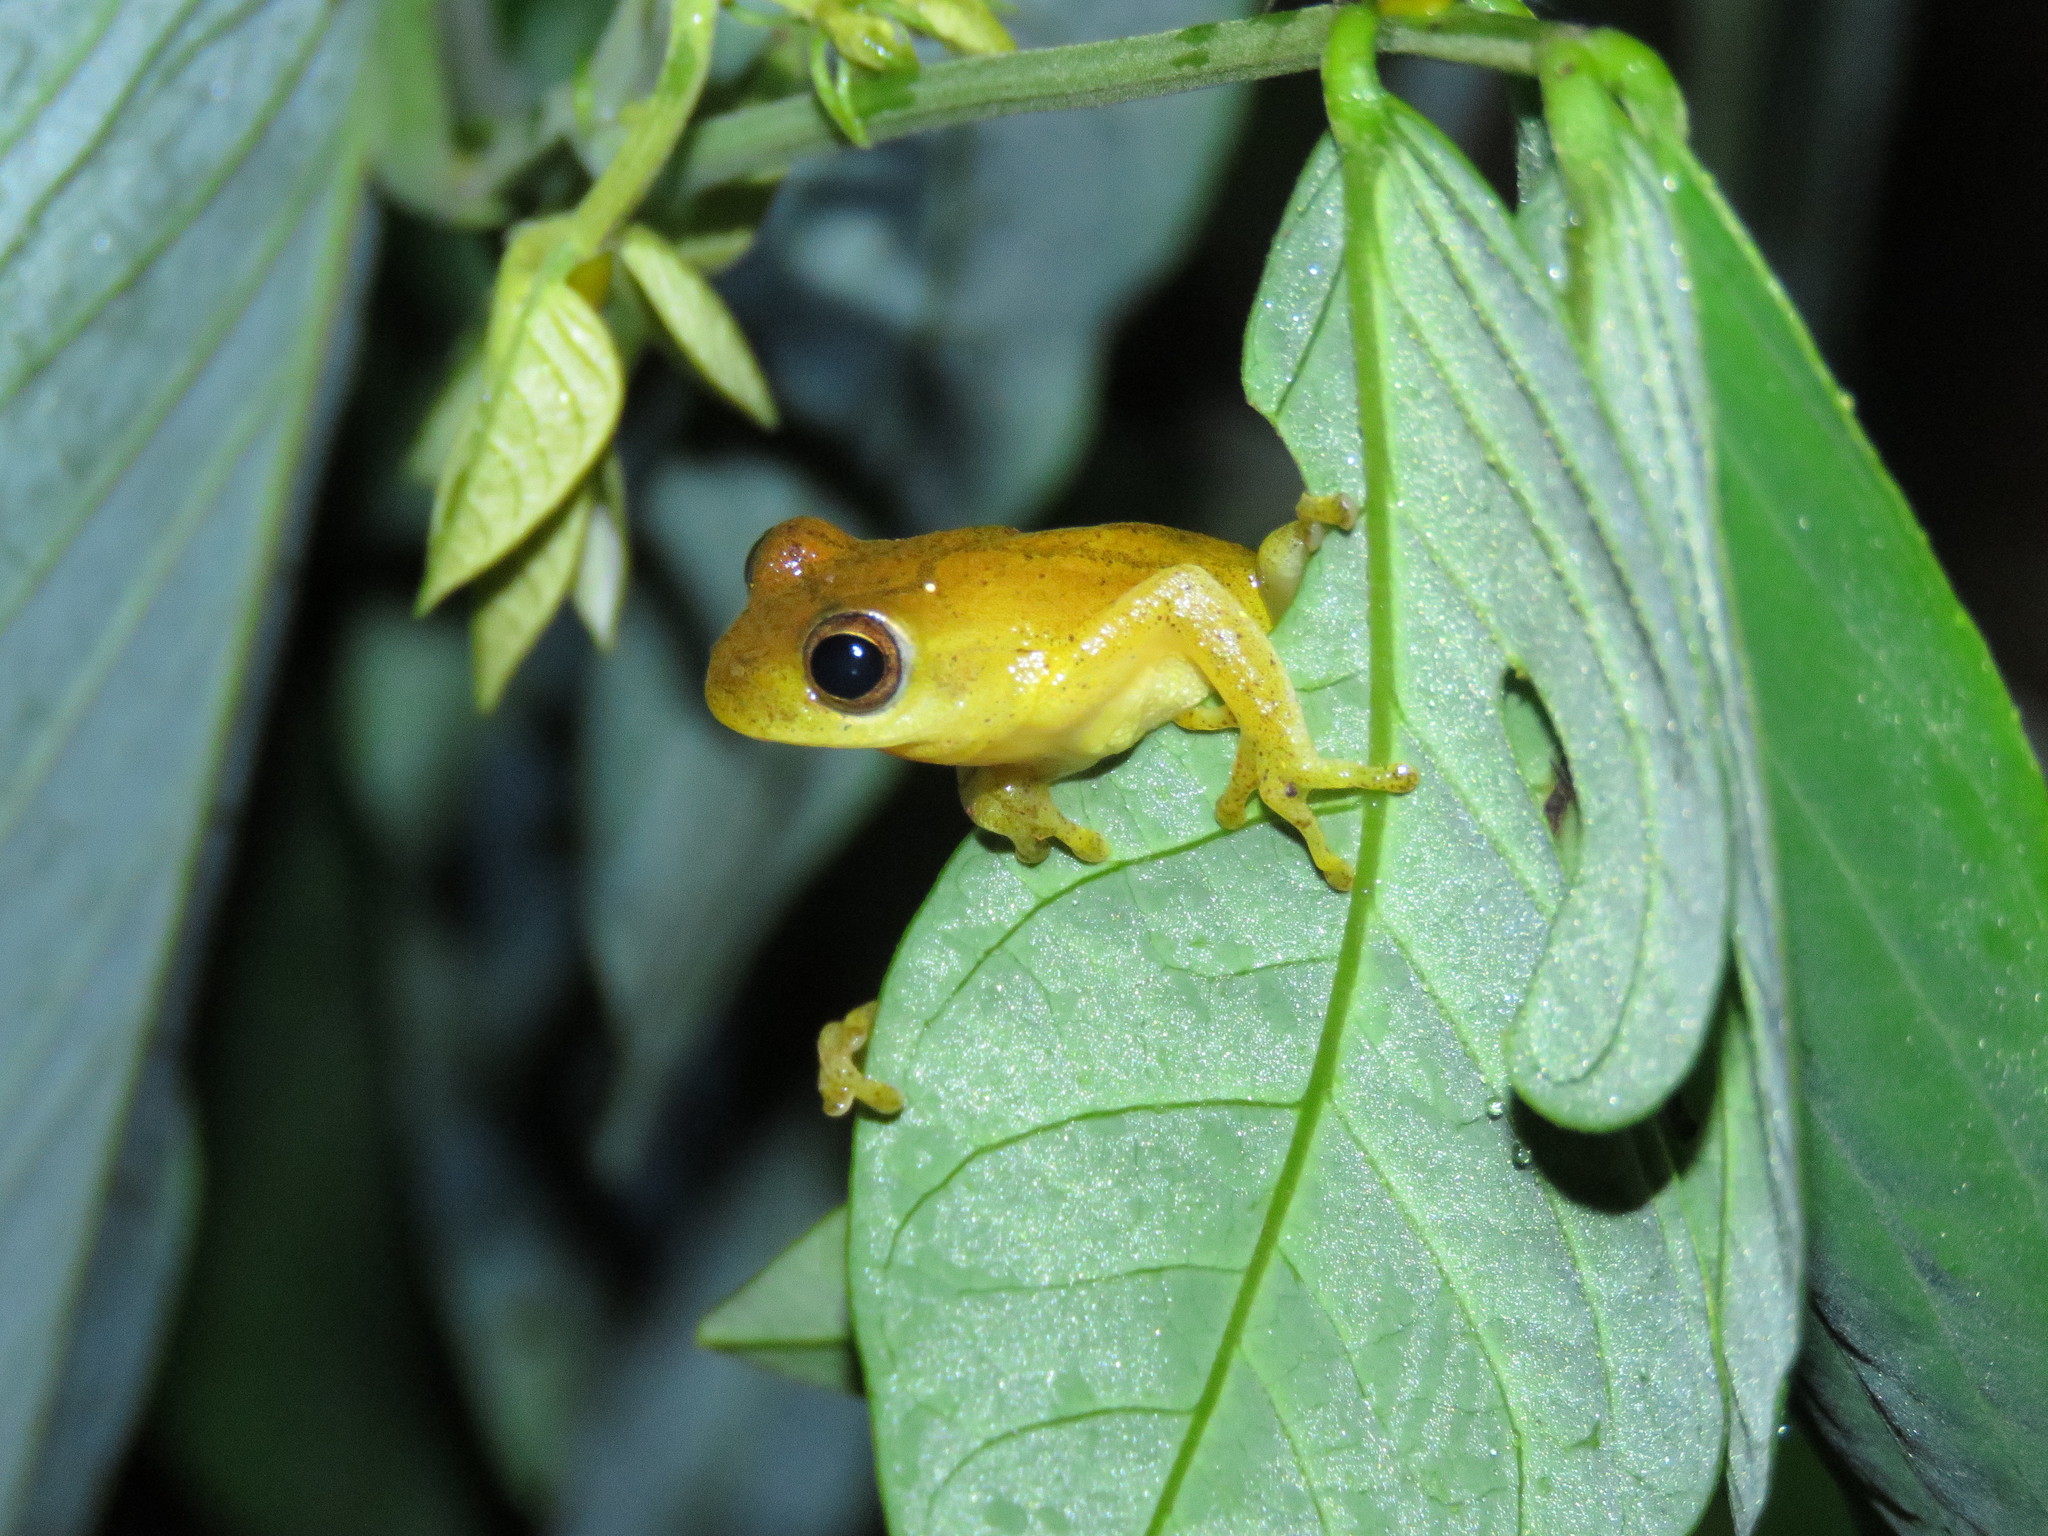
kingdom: Animalia
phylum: Chordata
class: Amphibia
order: Anura
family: Hylidae
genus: Dendropsophus
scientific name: Dendropsophus minutus
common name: Lesser treefrog
